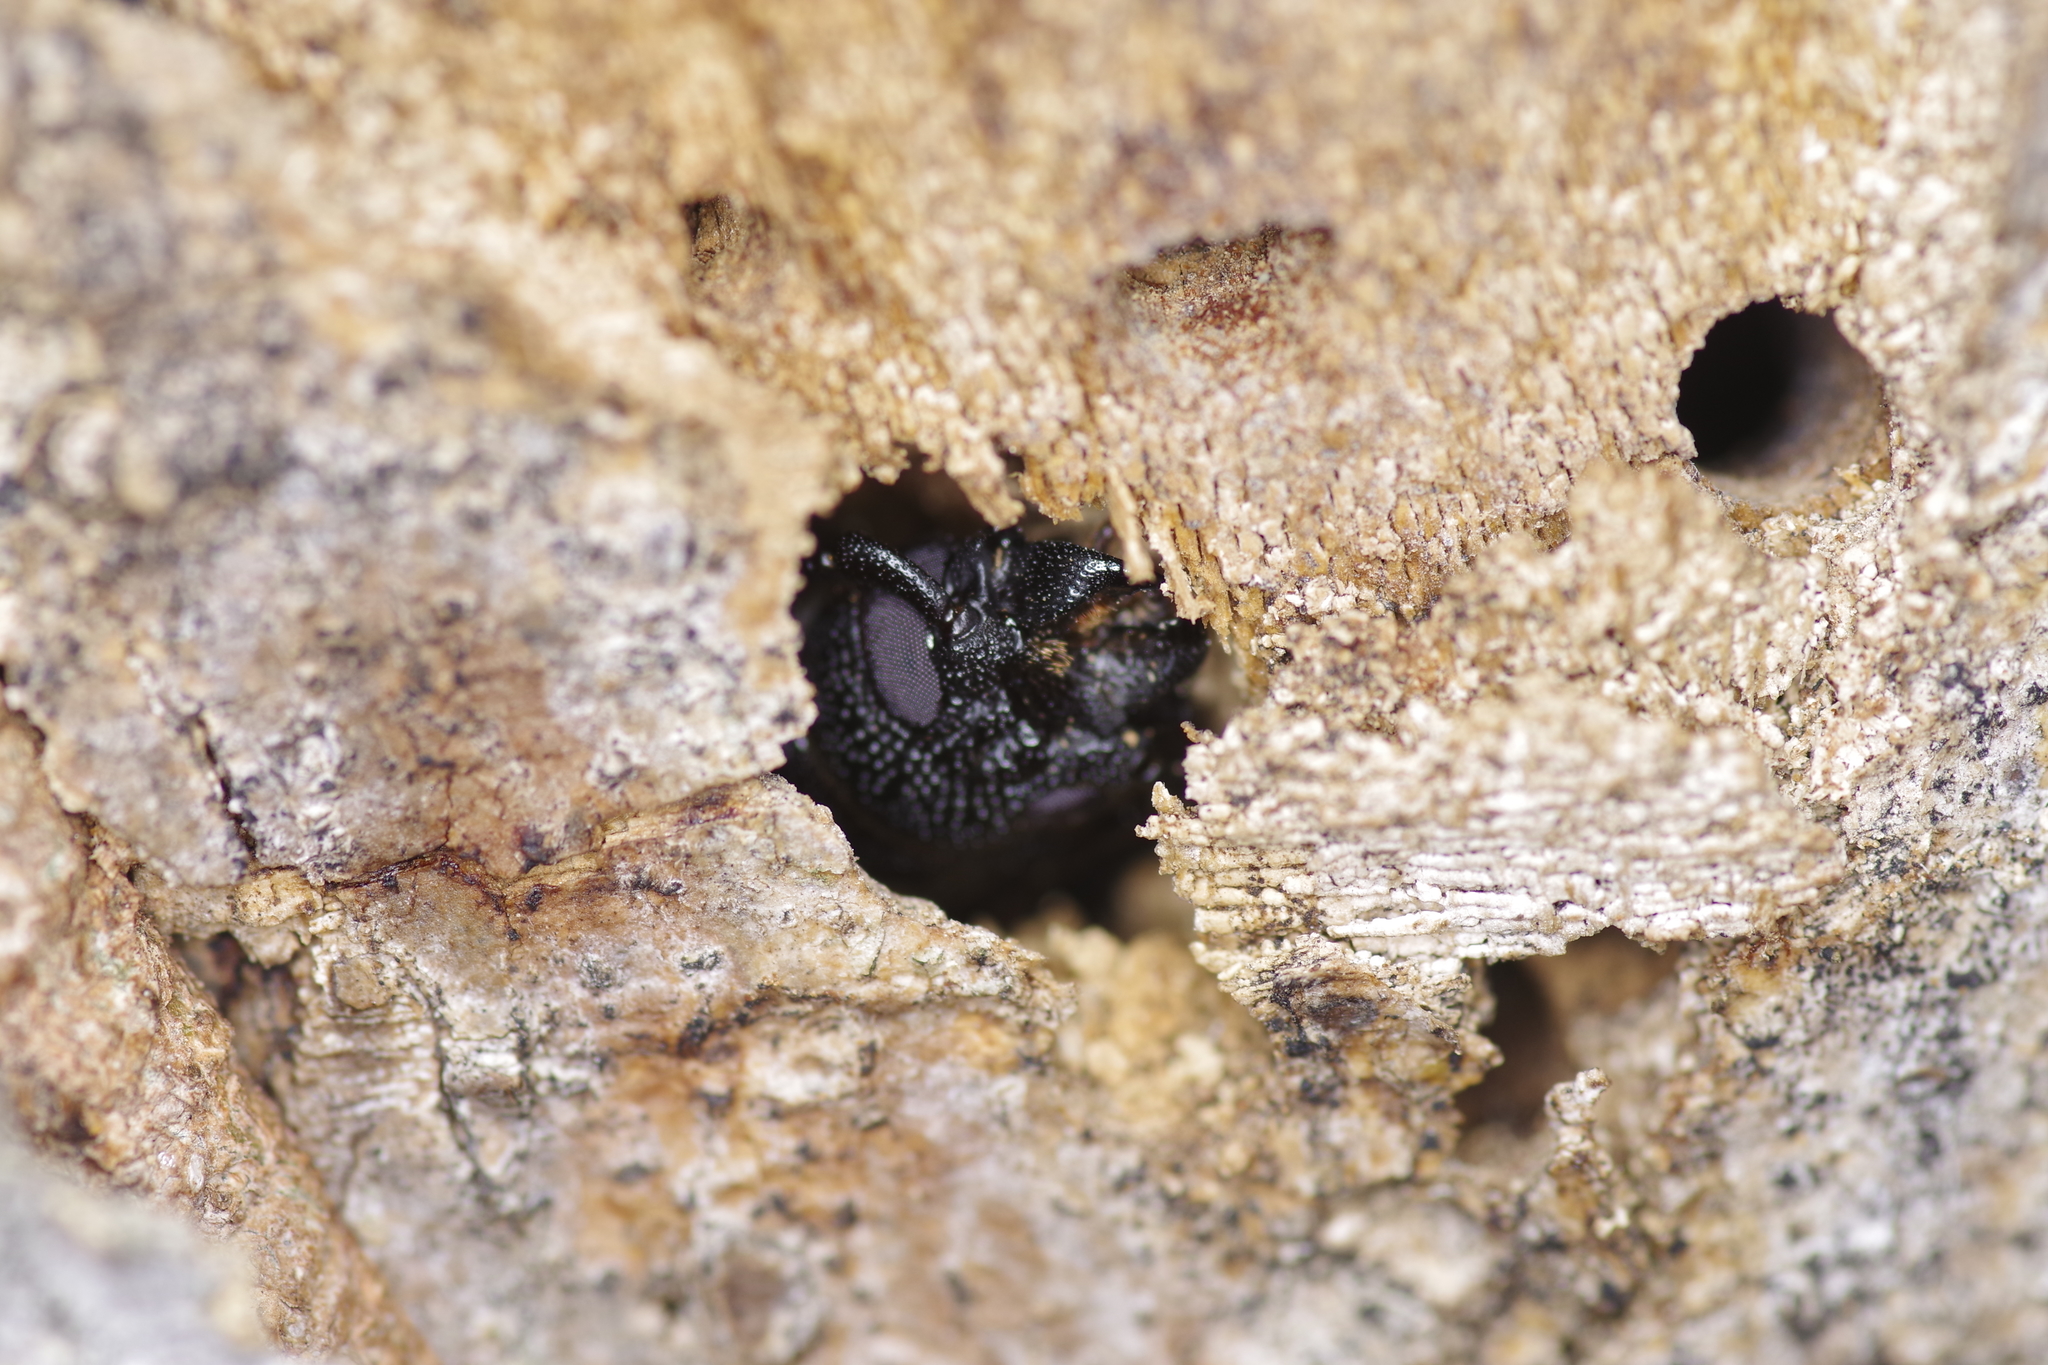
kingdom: Animalia
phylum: Arthropoda
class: Insecta
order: Coleoptera
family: Cerambycidae
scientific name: Cerambycidae
